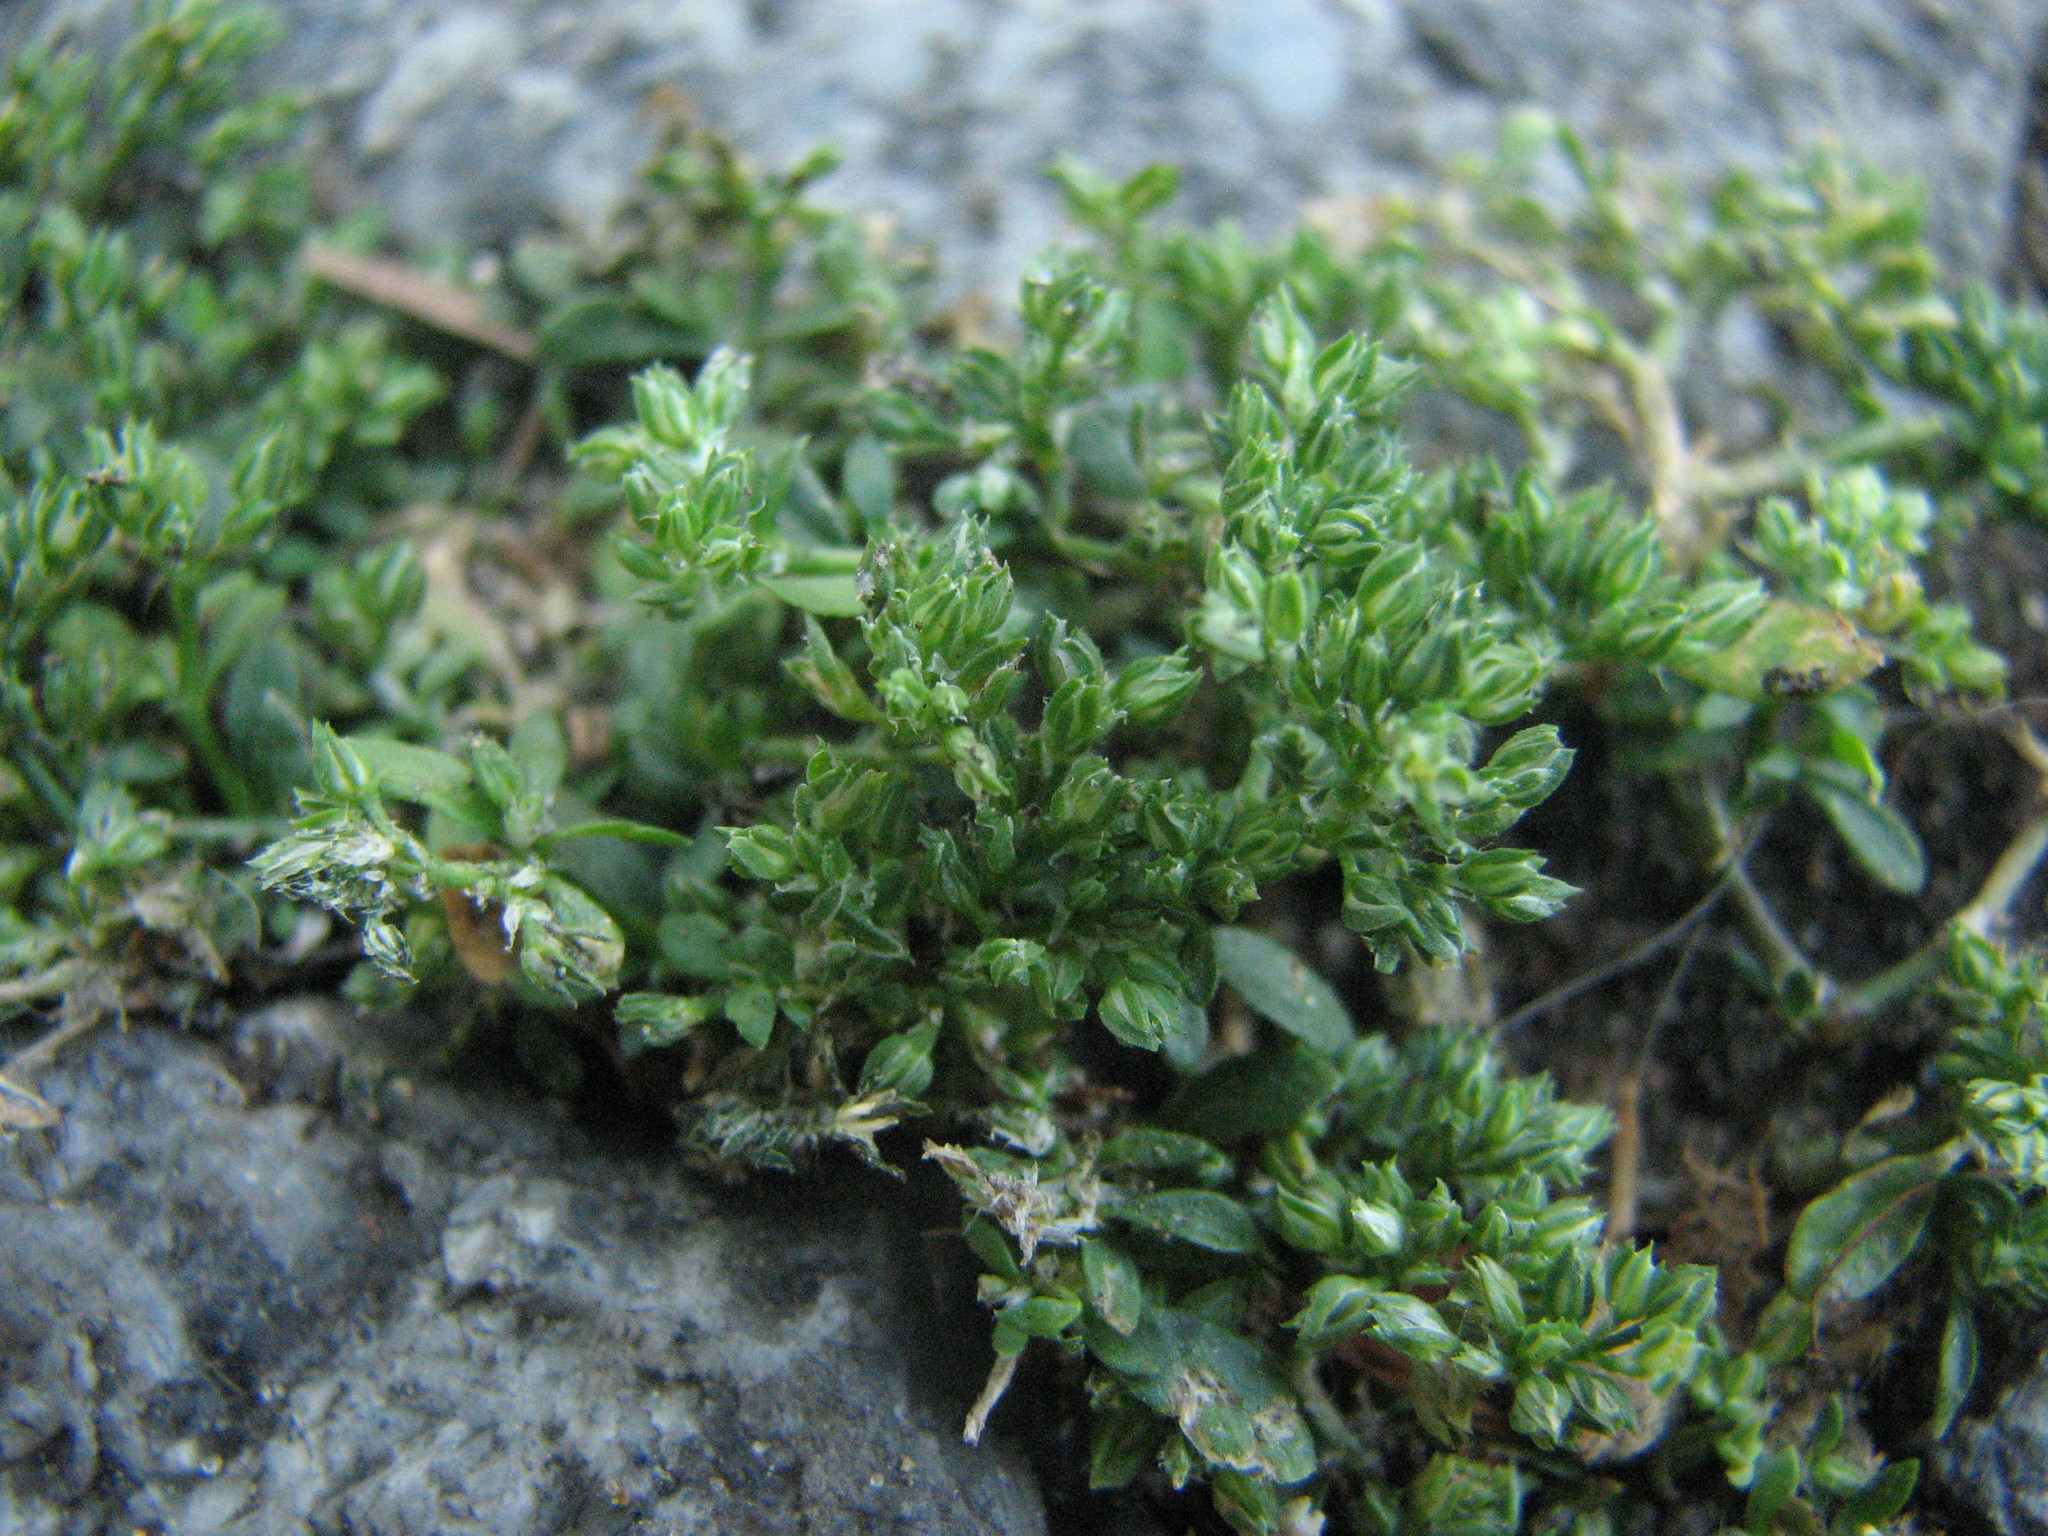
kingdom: Plantae
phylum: Tracheophyta
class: Magnoliopsida
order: Caryophyllales
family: Caryophyllaceae
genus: Polycarpon
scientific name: Polycarpon tetraphyllum
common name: Four-leaved all-seed
